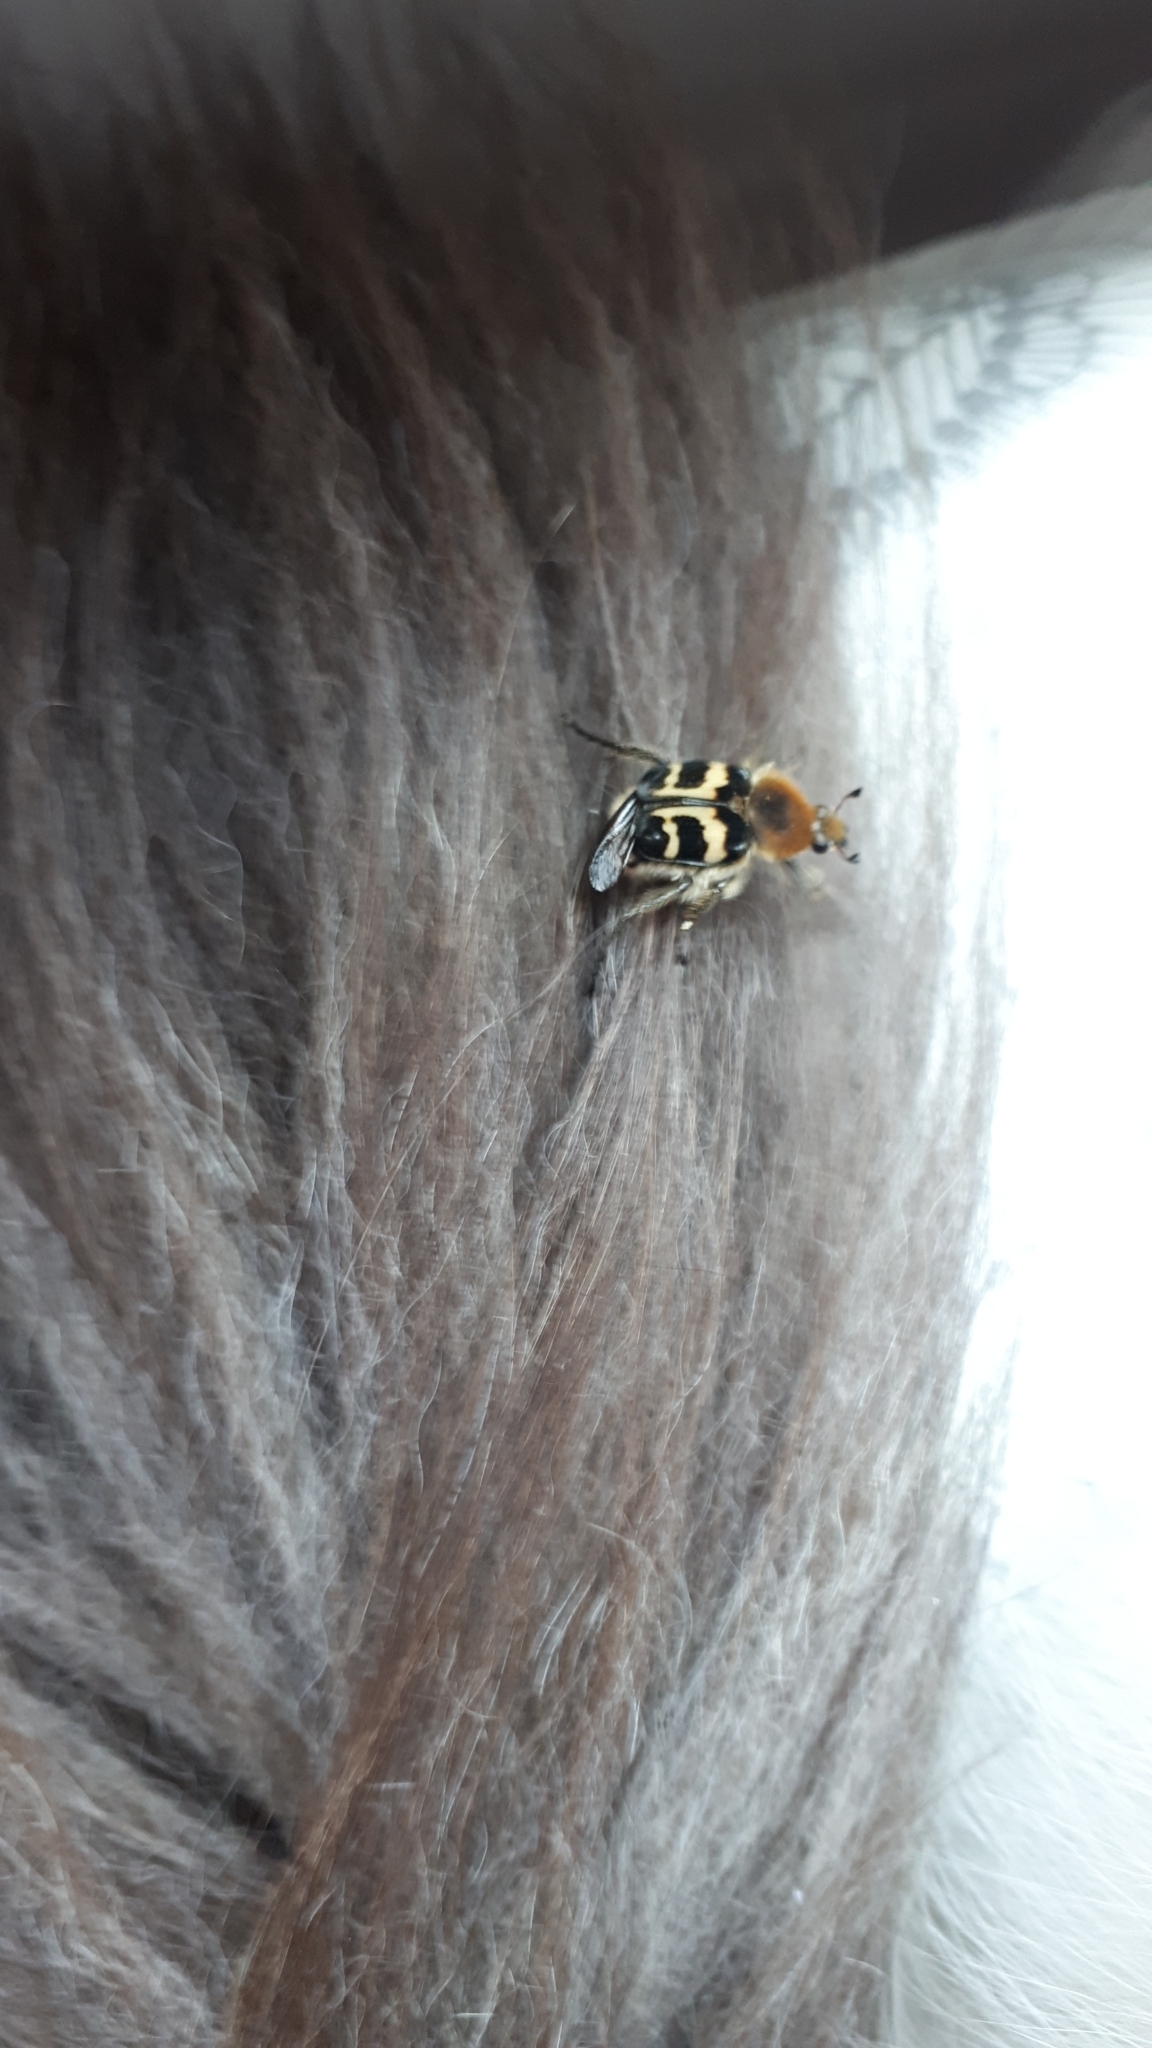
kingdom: Animalia
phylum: Arthropoda
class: Insecta
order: Coleoptera
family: Scarabaeidae
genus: Trichius
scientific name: Trichius fasciatus
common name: Bee beetle
